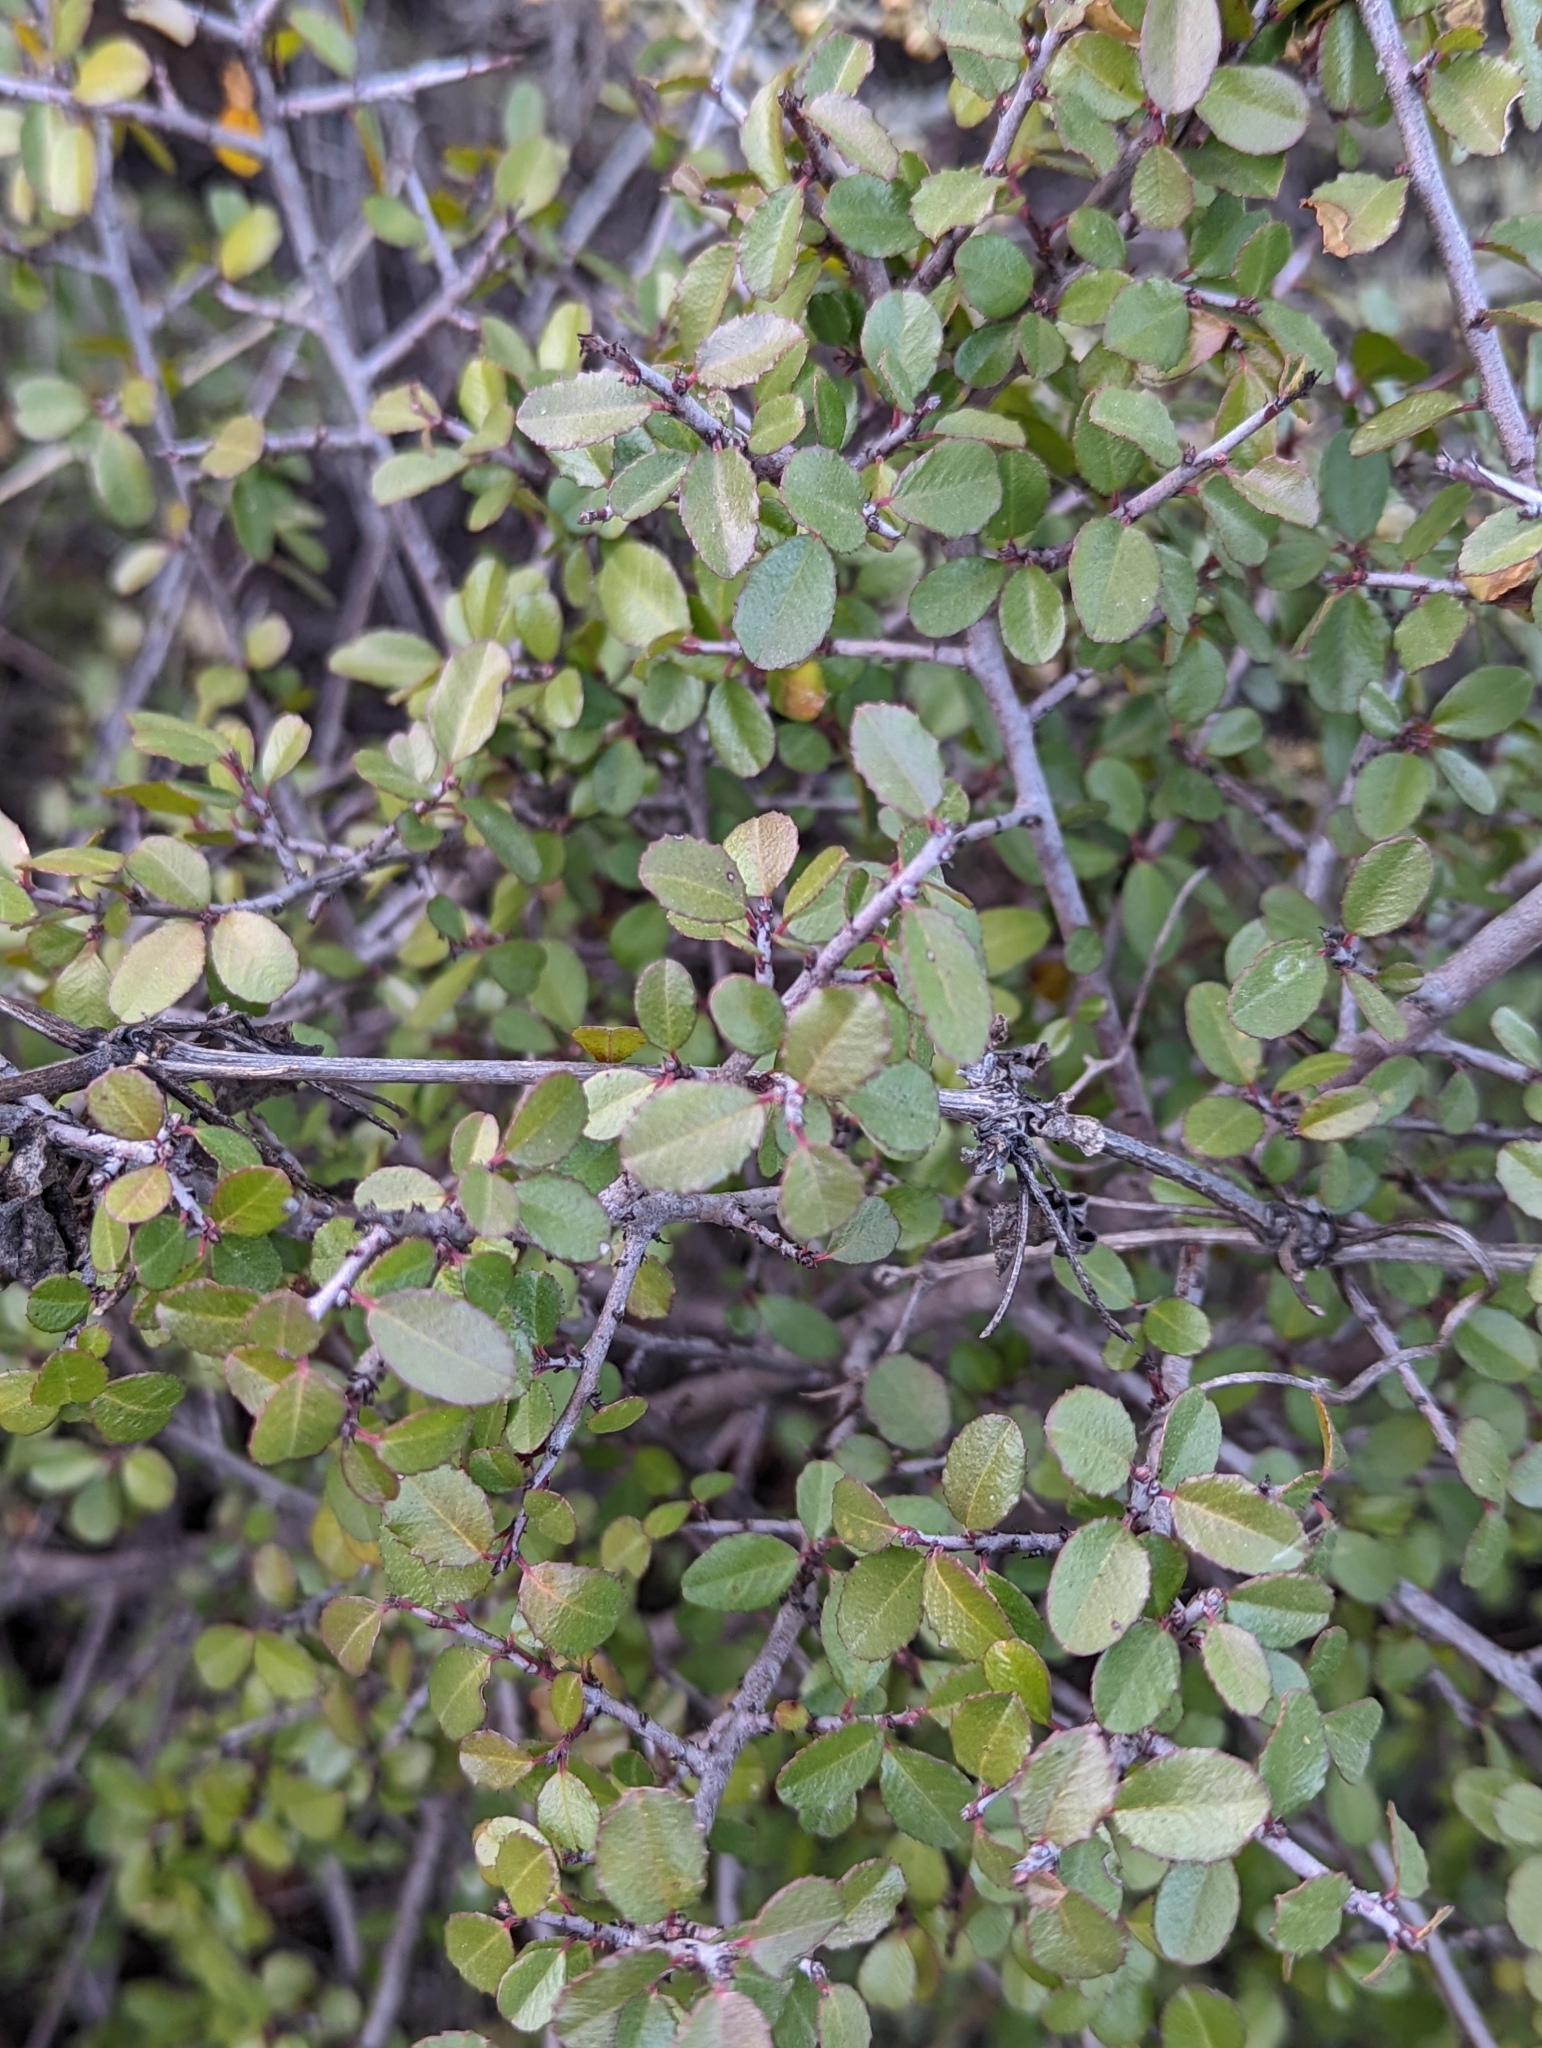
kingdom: Plantae
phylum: Tracheophyta
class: Magnoliopsida
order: Rosales
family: Rhamnaceae
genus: Endotropis
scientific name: Endotropis crocea
